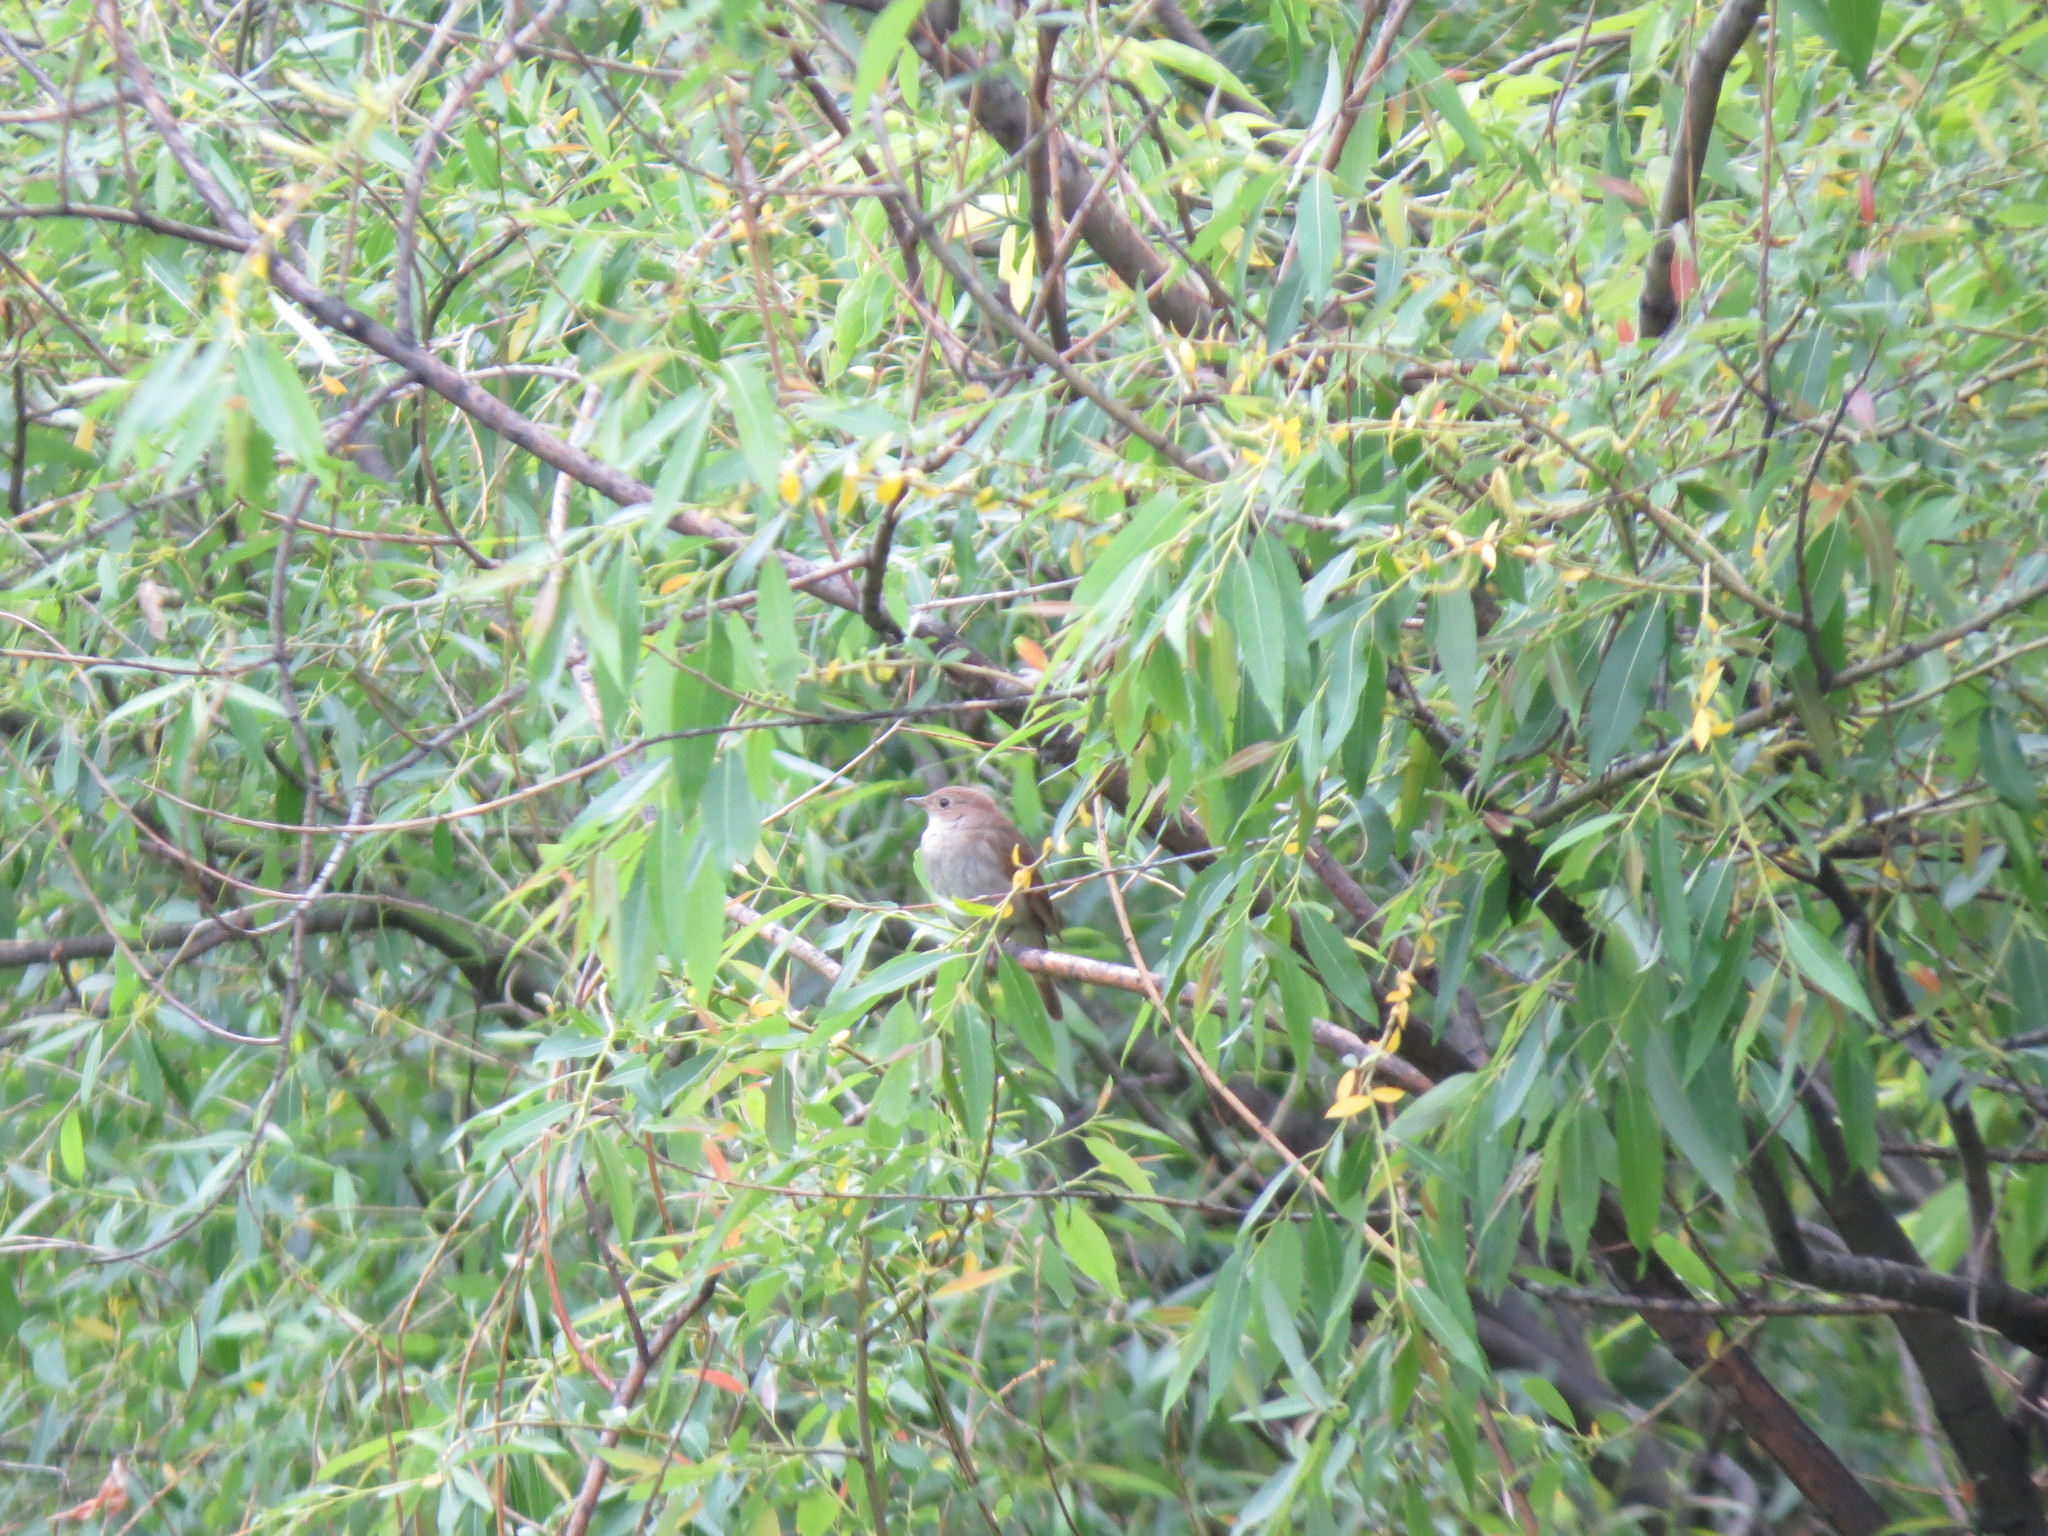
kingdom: Animalia
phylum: Chordata
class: Aves
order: Passeriformes
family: Muscicapidae
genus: Luscinia
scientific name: Luscinia luscinia
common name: Thrush nightingale
